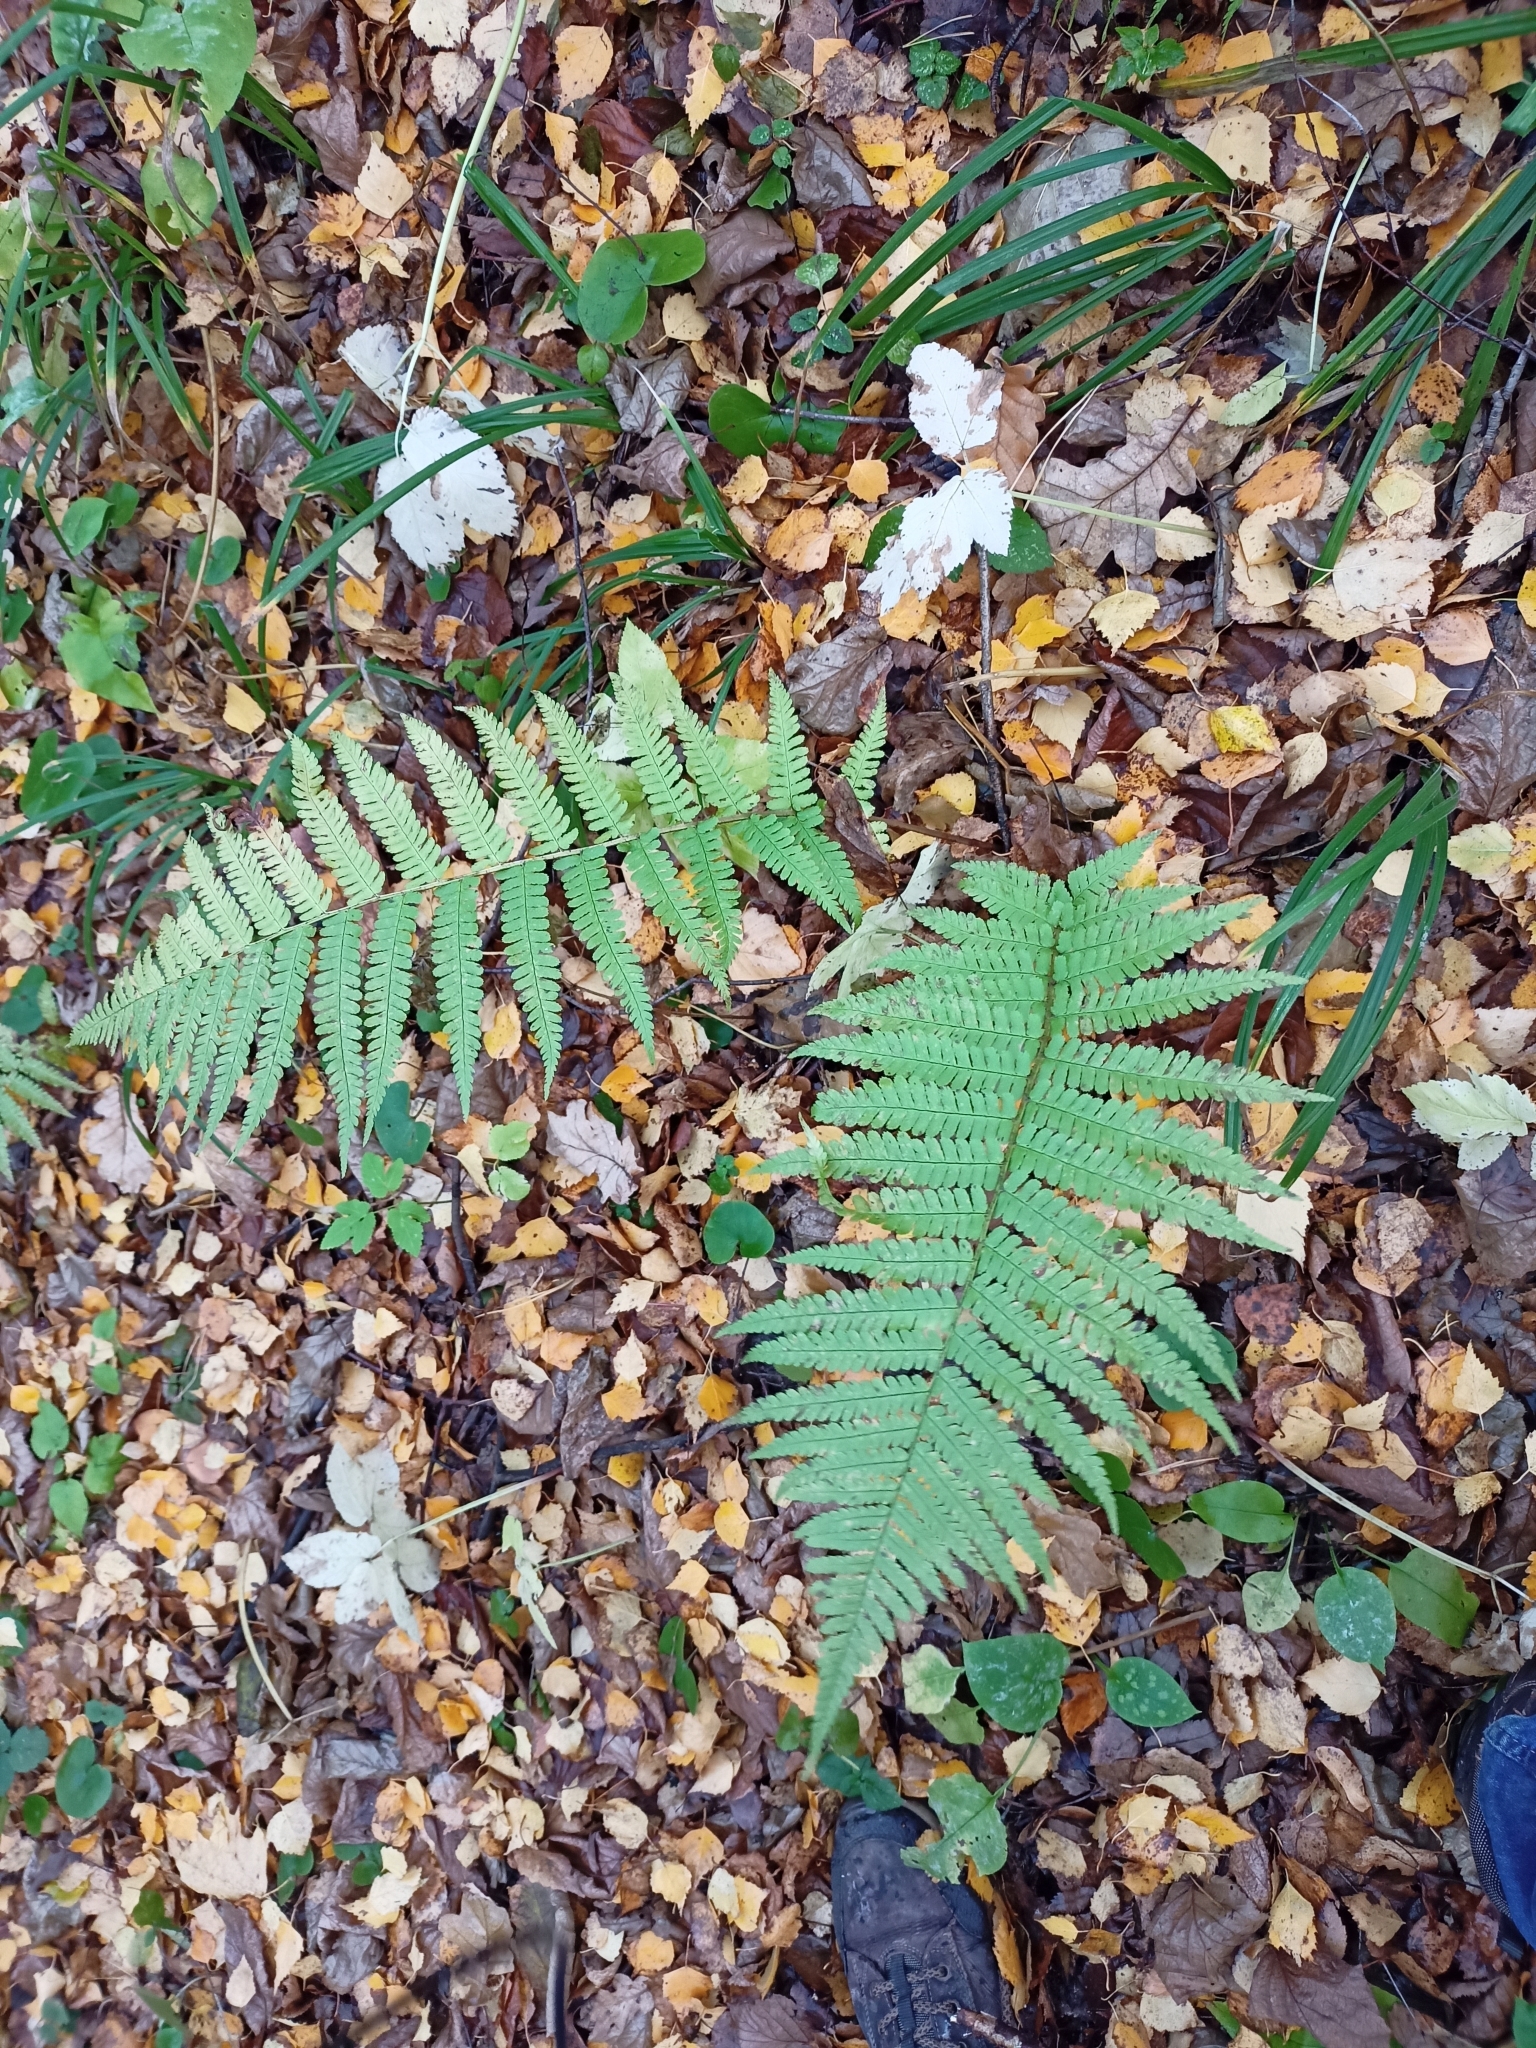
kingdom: Plantae
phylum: Tracheophyta
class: Polypodiopsida
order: Polypodiales
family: Dryopteridaceae
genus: Dryopteris
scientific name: Dryopteris filix-mas
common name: Male fern
